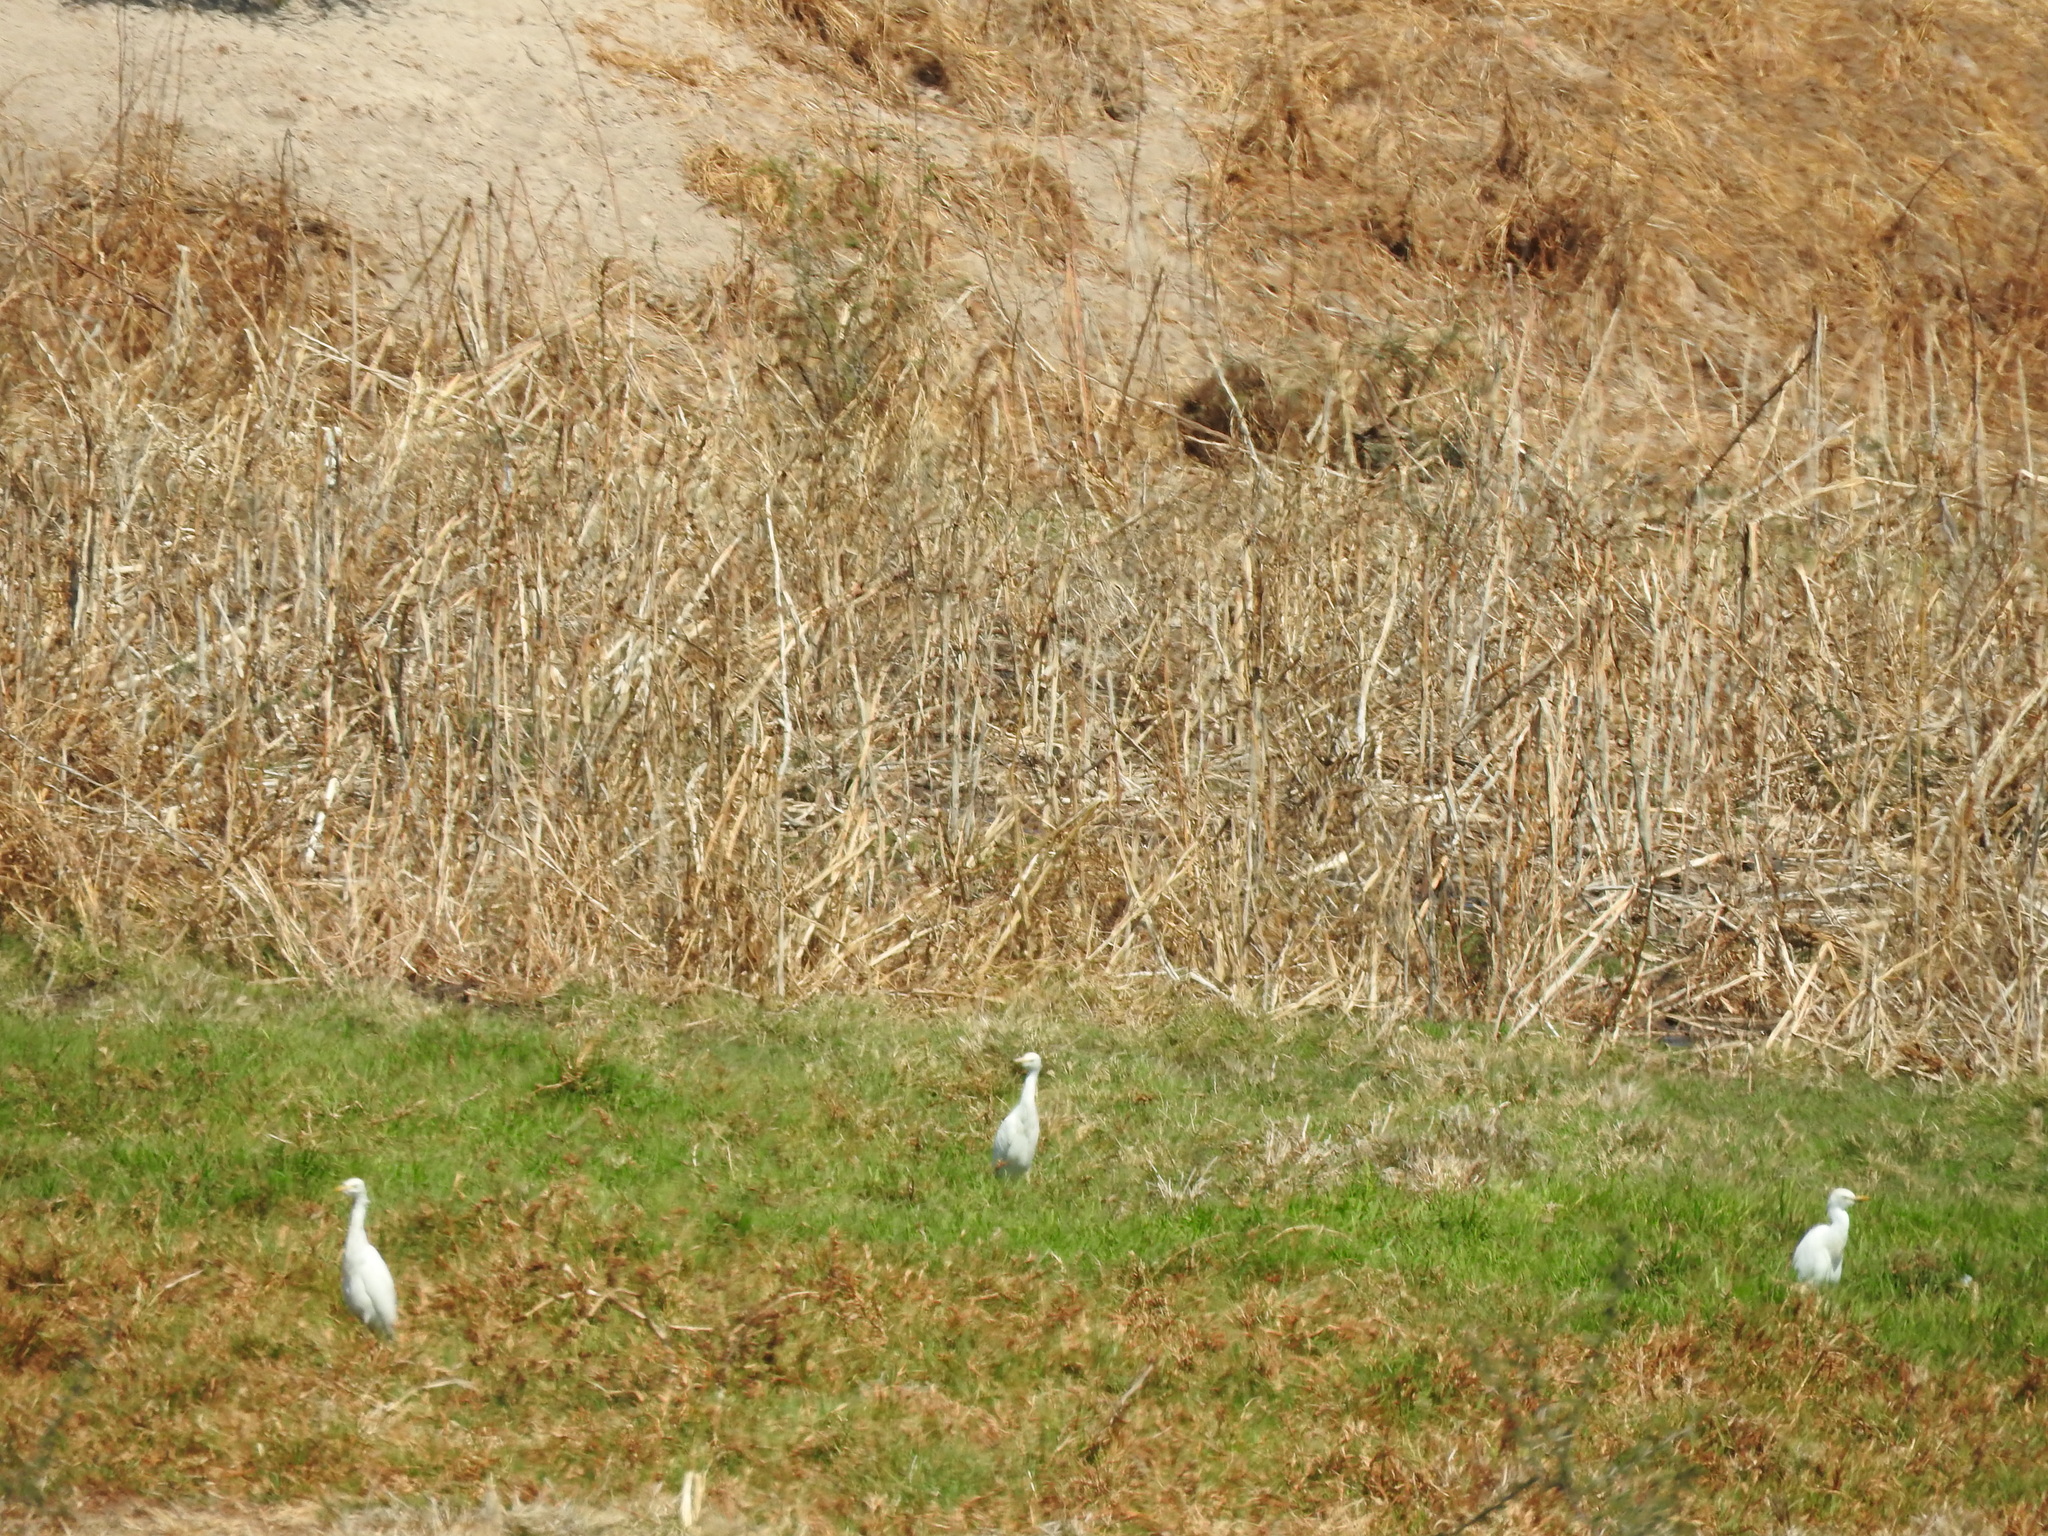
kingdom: Animalia
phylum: Chordata
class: Aves
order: Pelecaniformes
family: Ardeidae
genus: Bubulcus
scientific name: Bubulcus ibis
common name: Cattle egret
